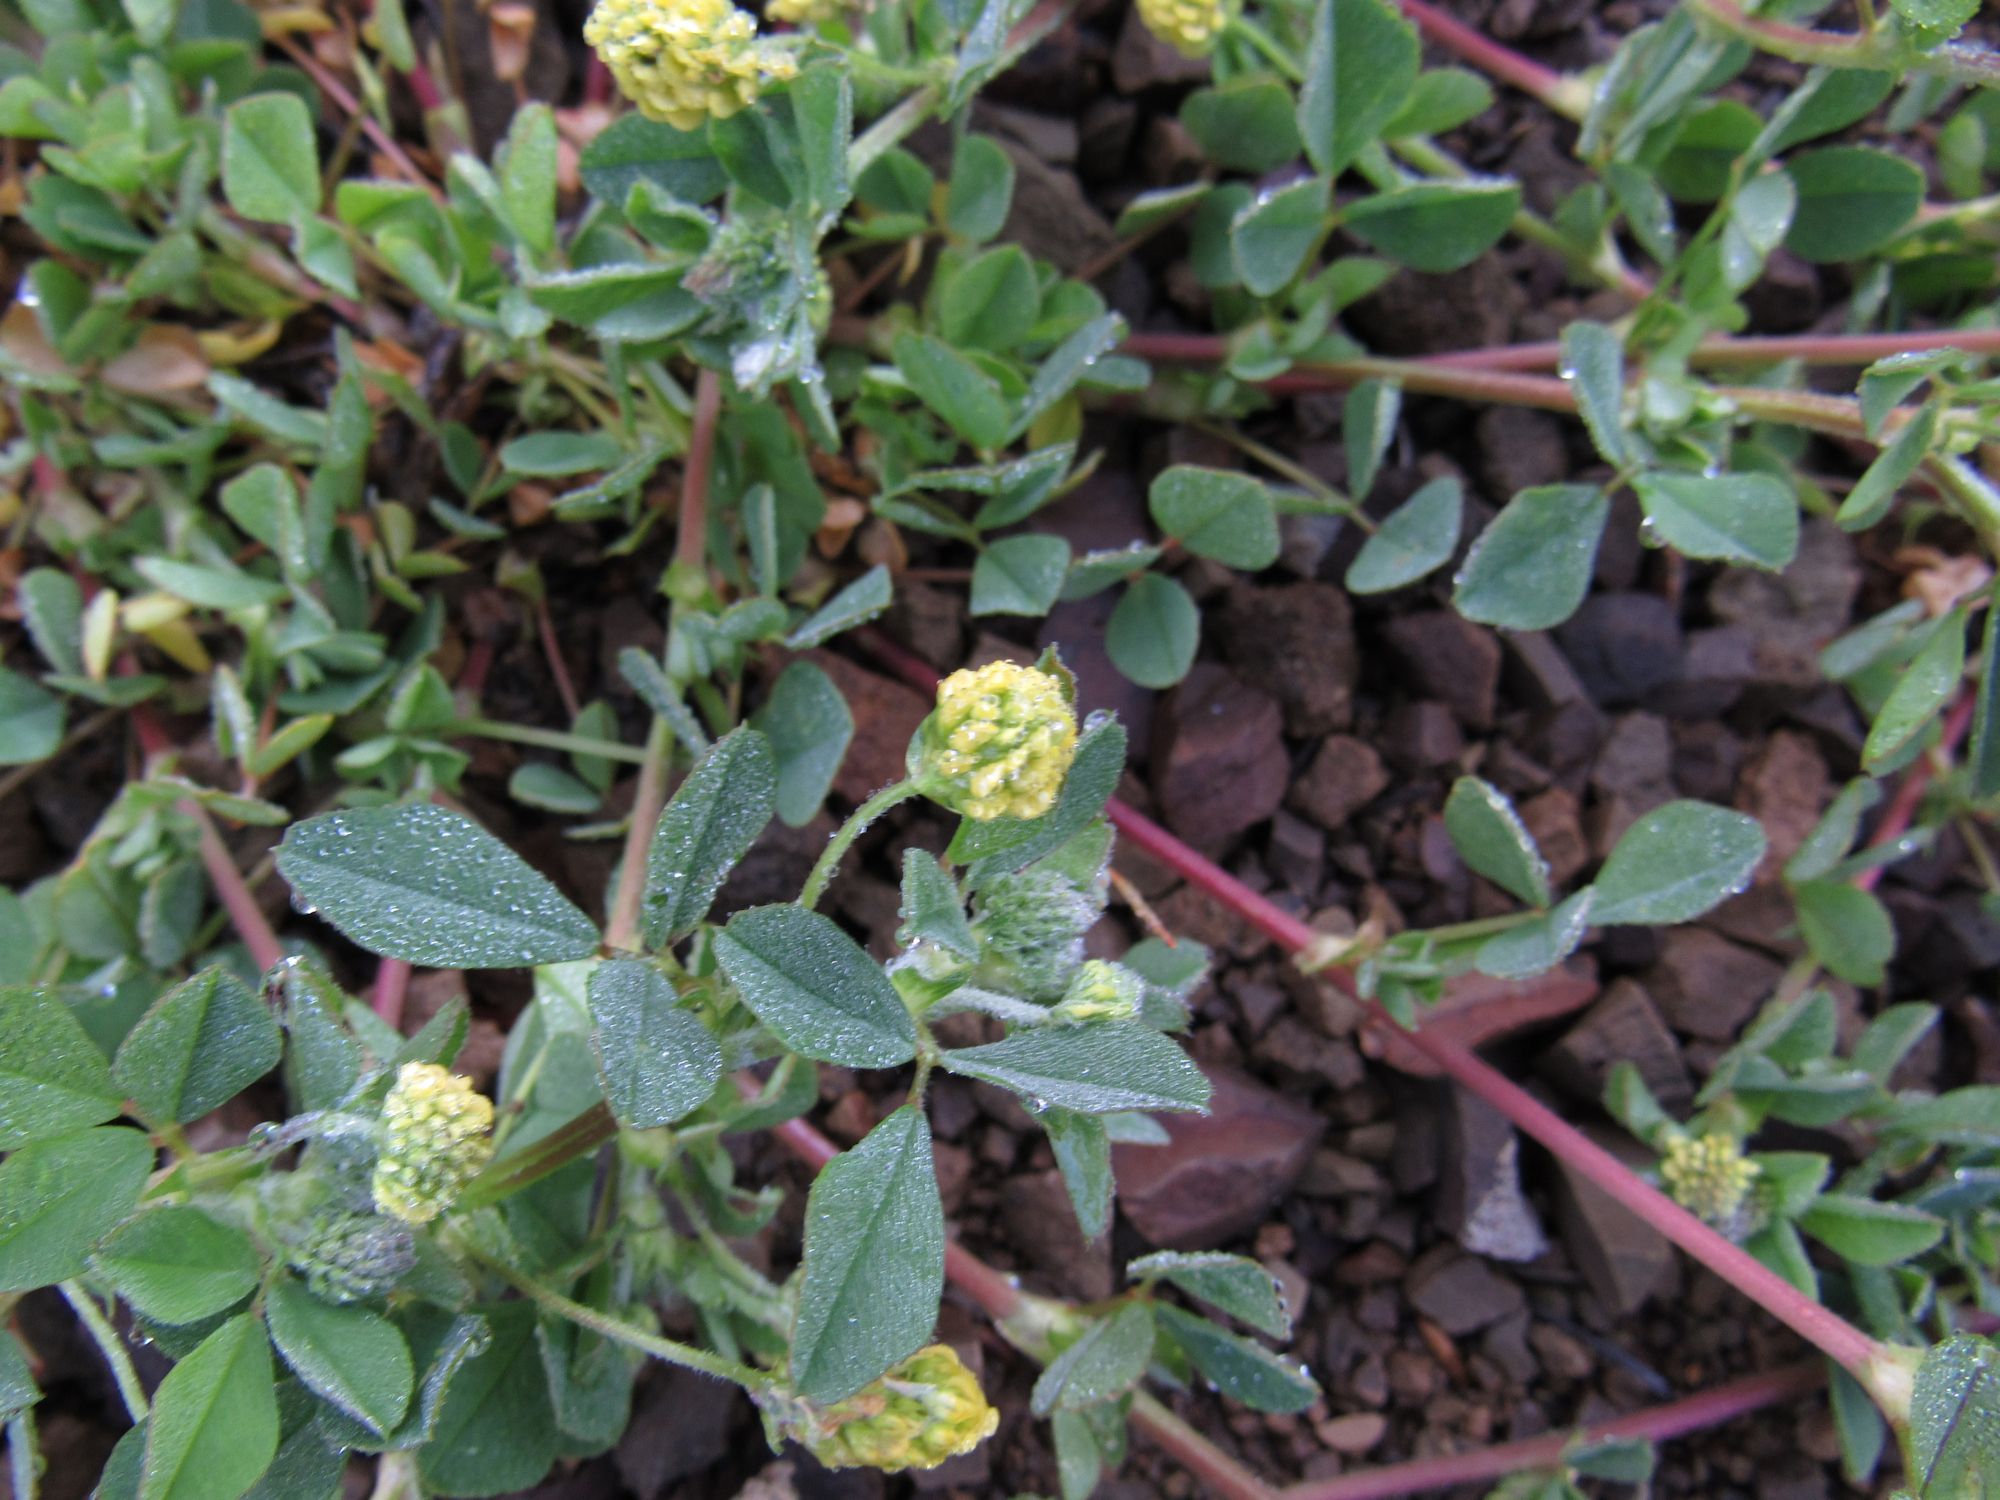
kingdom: Plantae
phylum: Tracheophyta
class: Magnoliopsida
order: Fabales
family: Fabaceae
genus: Medicago
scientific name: Medicago lupulina
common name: Black medick
